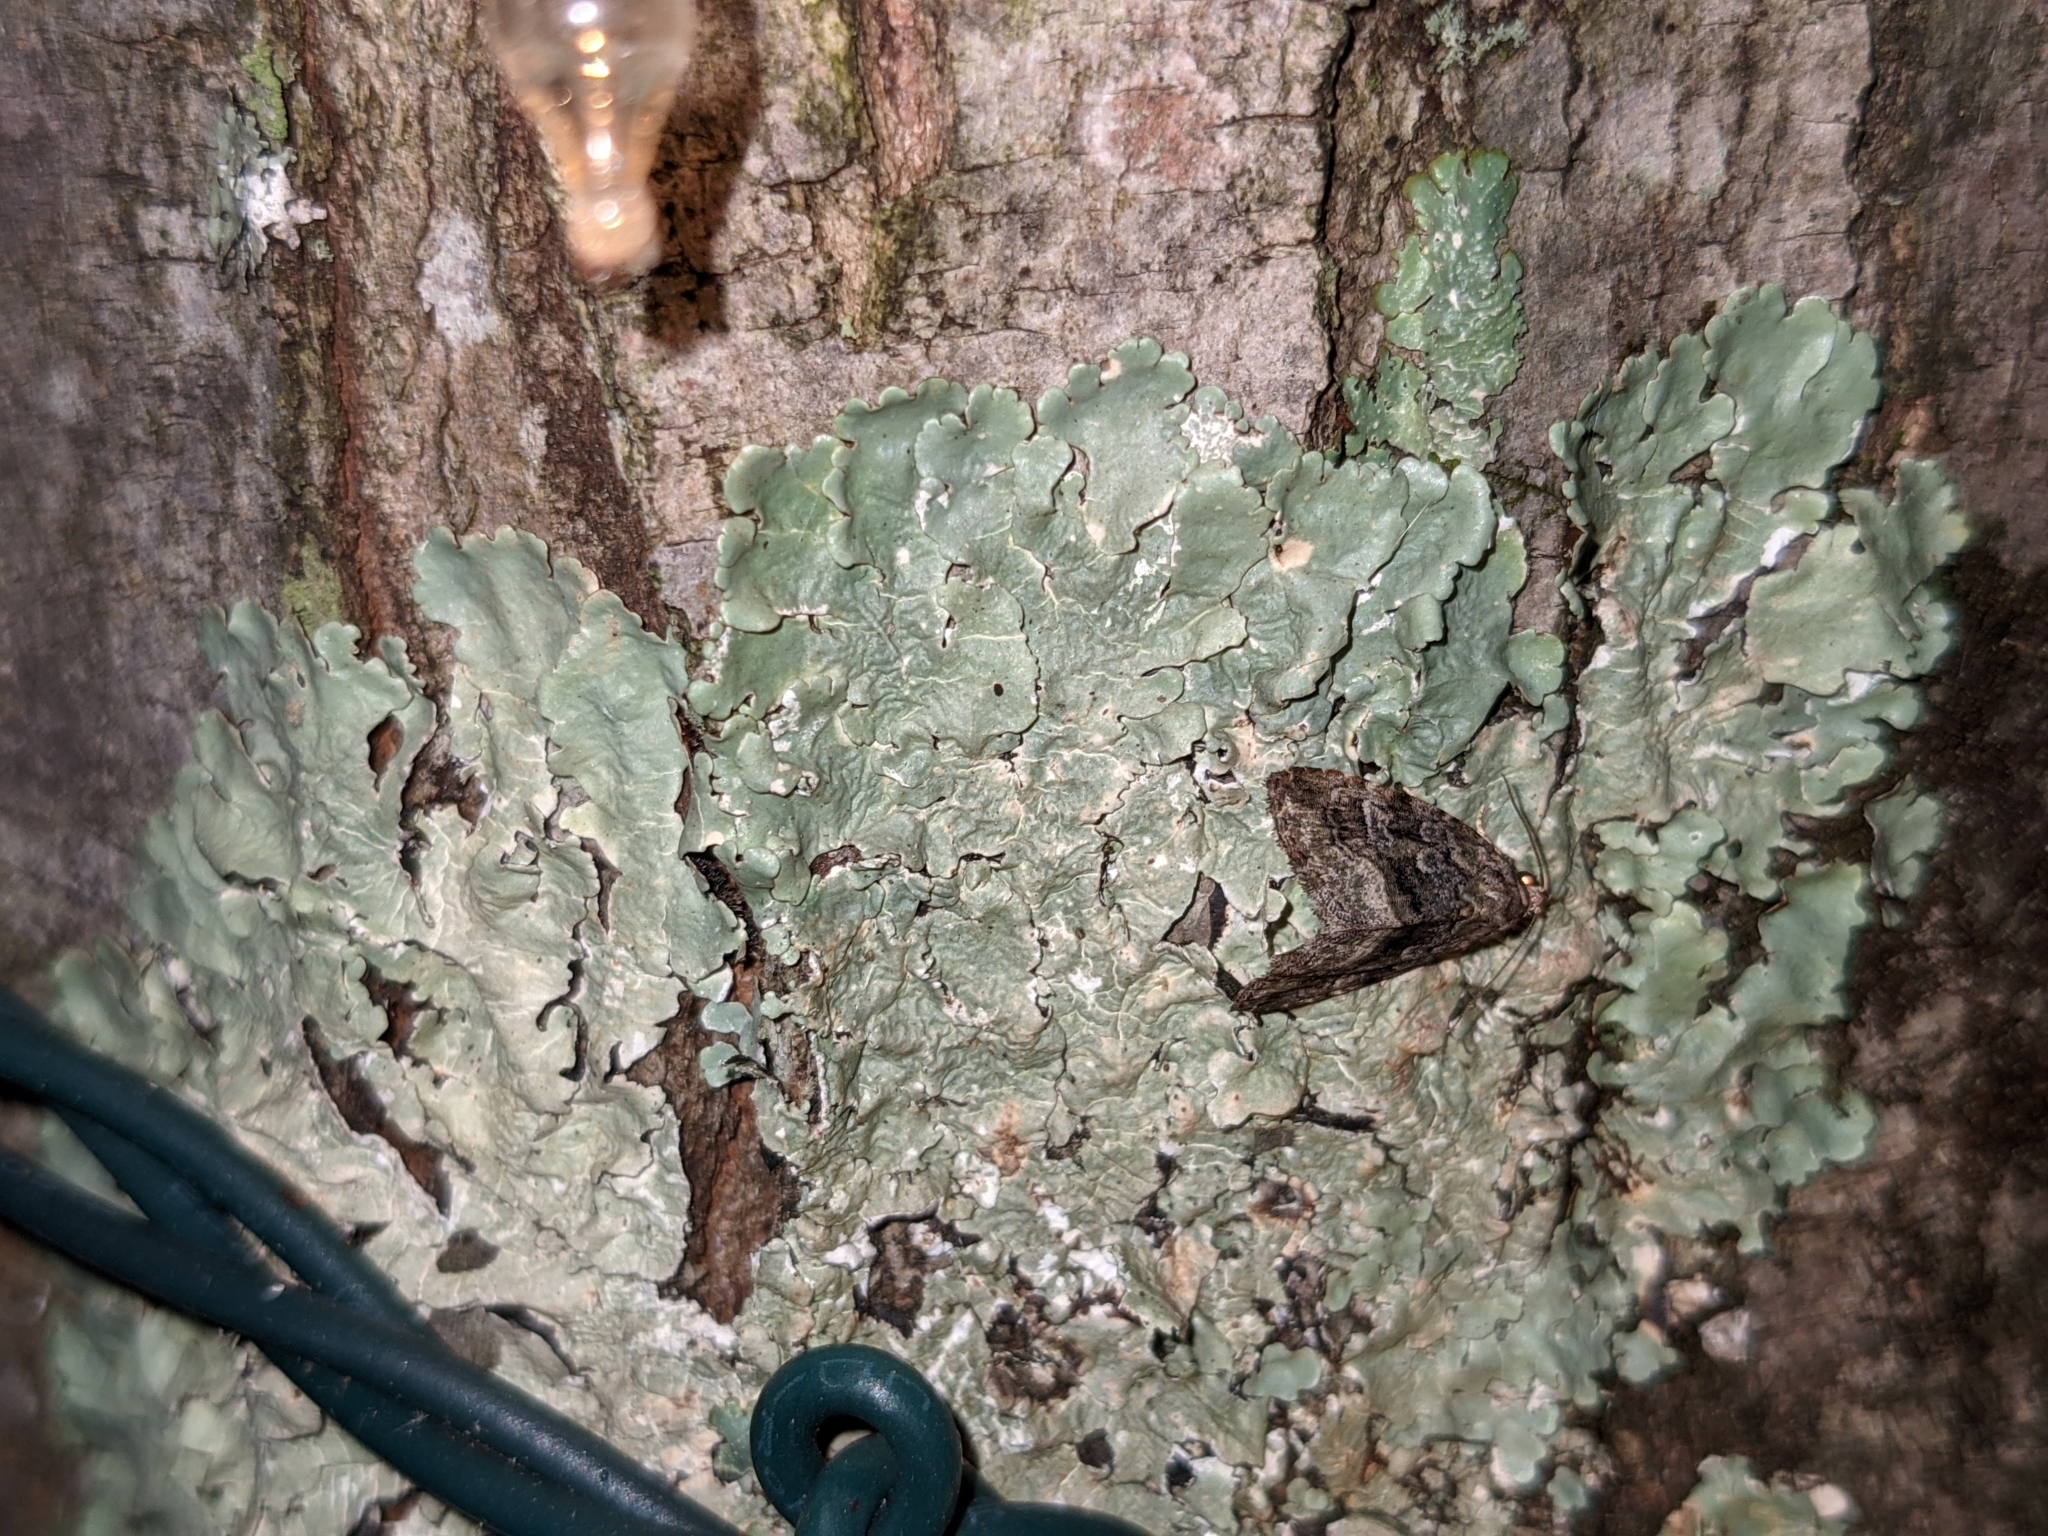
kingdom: Animalia
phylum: Arthropoda
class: Insecta
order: Lepidoptera
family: Noctuidae
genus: Protodeltote
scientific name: Protodeltote muscosula
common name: Large mossy glyph
